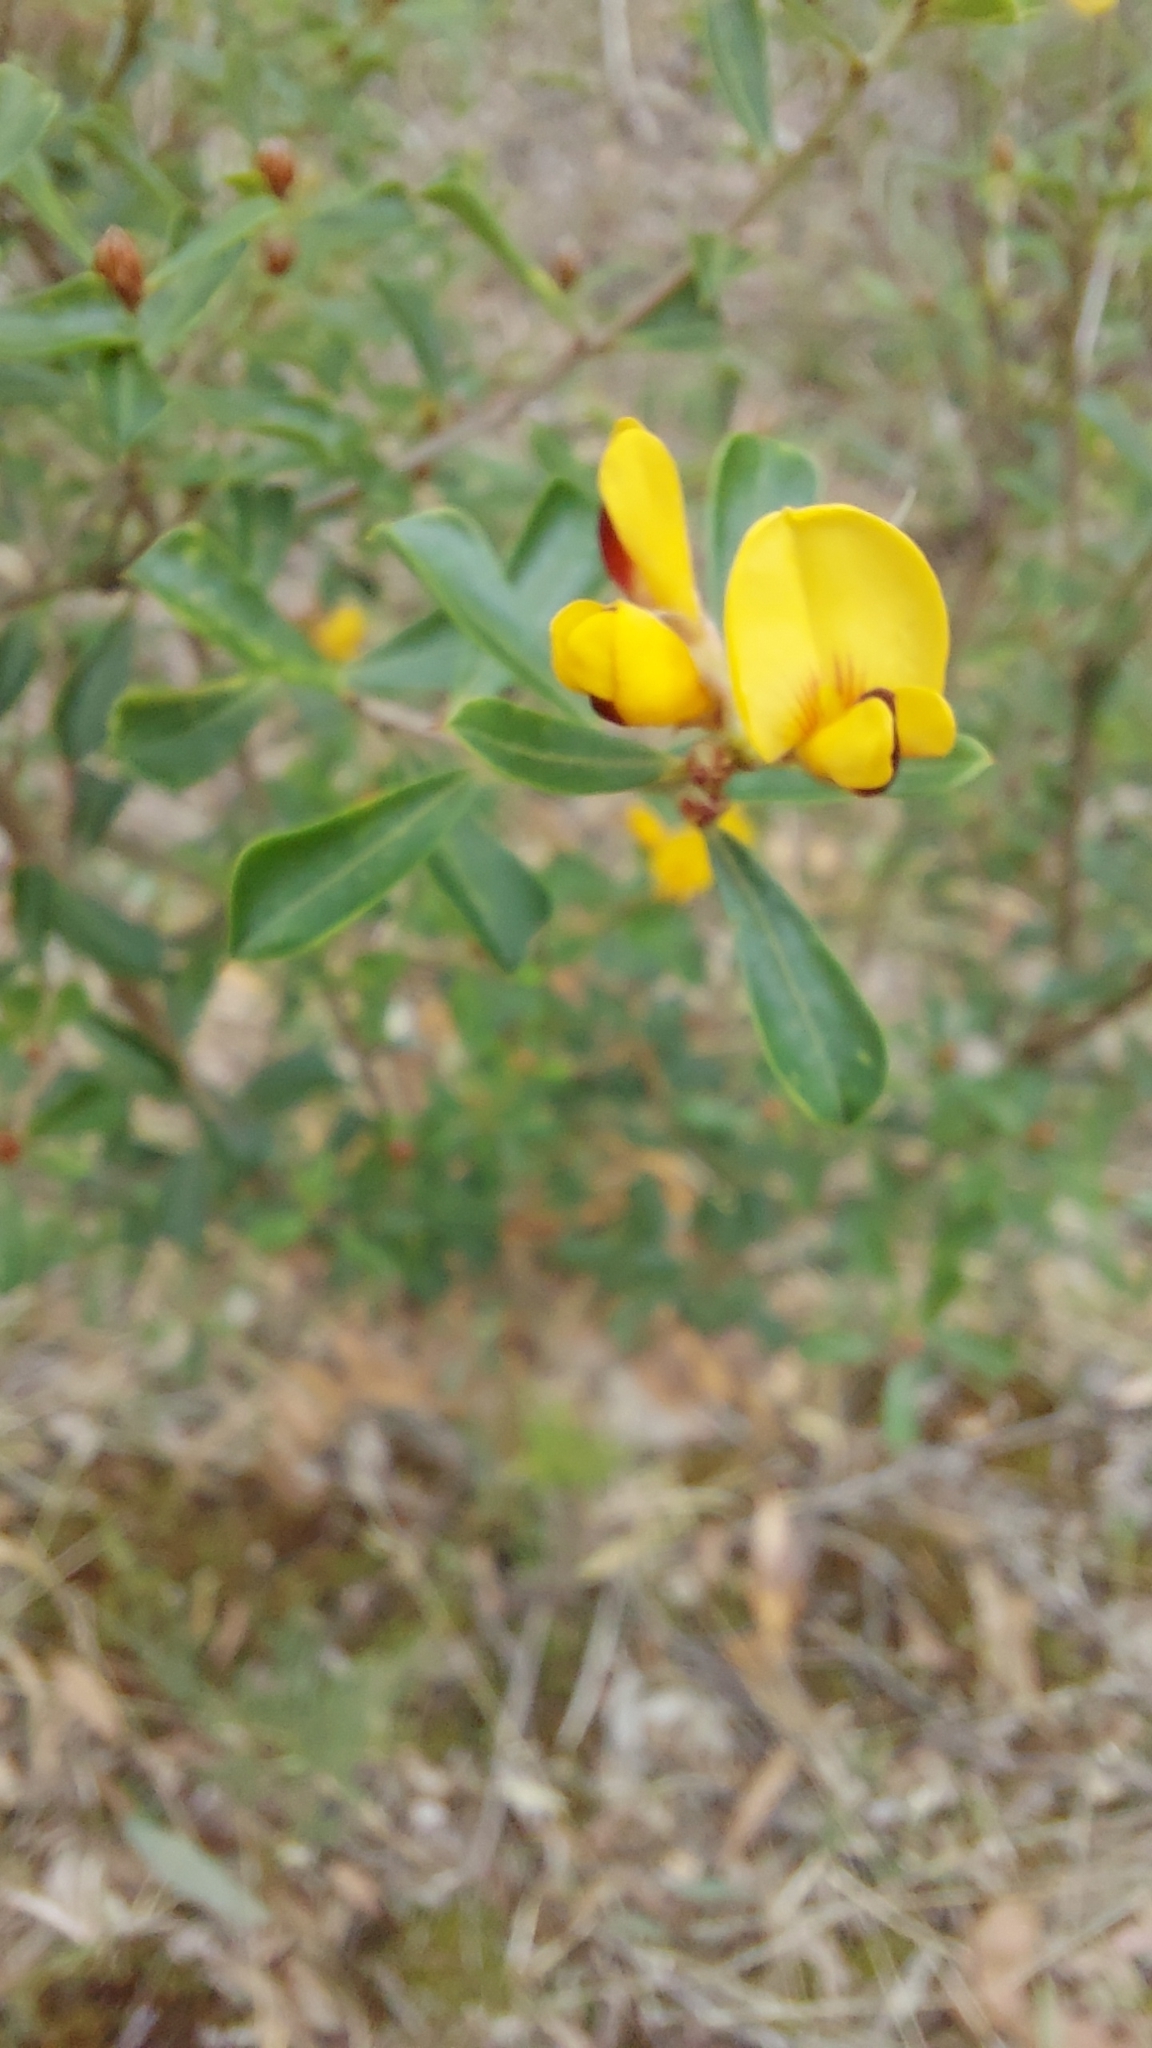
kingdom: Plantae
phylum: Tracheophyta
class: Magnoliopsida
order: Fabales
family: Fabaceae
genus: Pultenaea
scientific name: Pultenaea daphnoides
